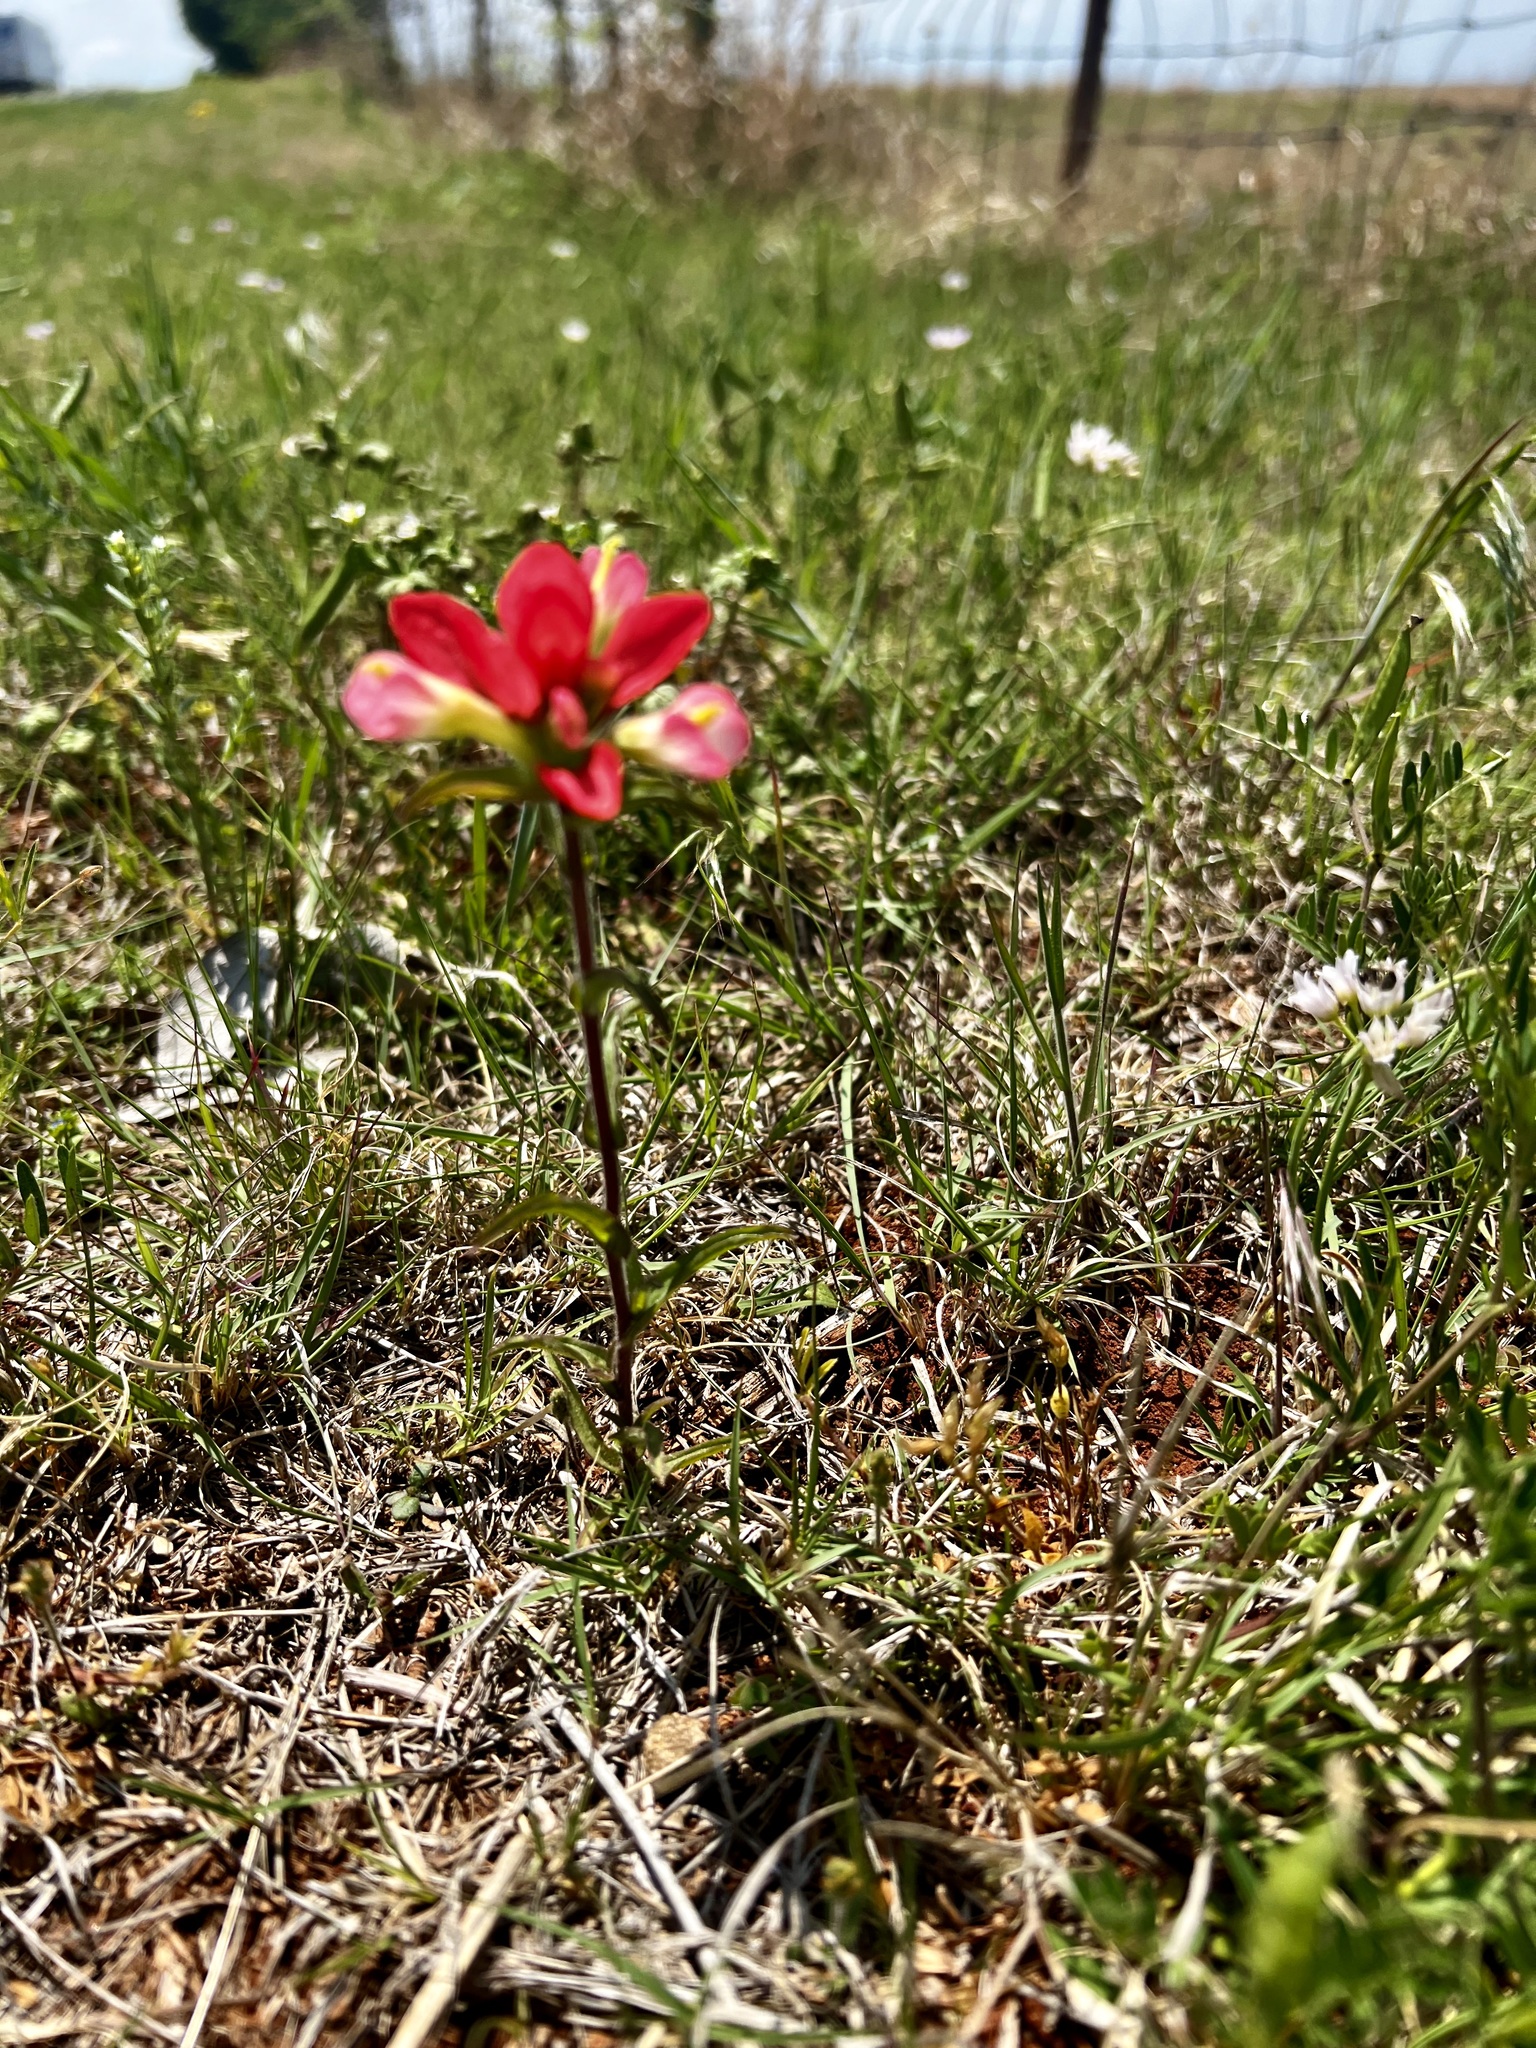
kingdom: Plantae
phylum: Tracheophyta
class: Magnoliopsida
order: Lamiales
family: Orobanchaceae
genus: Castilleja
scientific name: Castilleja indivisa
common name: Texas paintbrush
